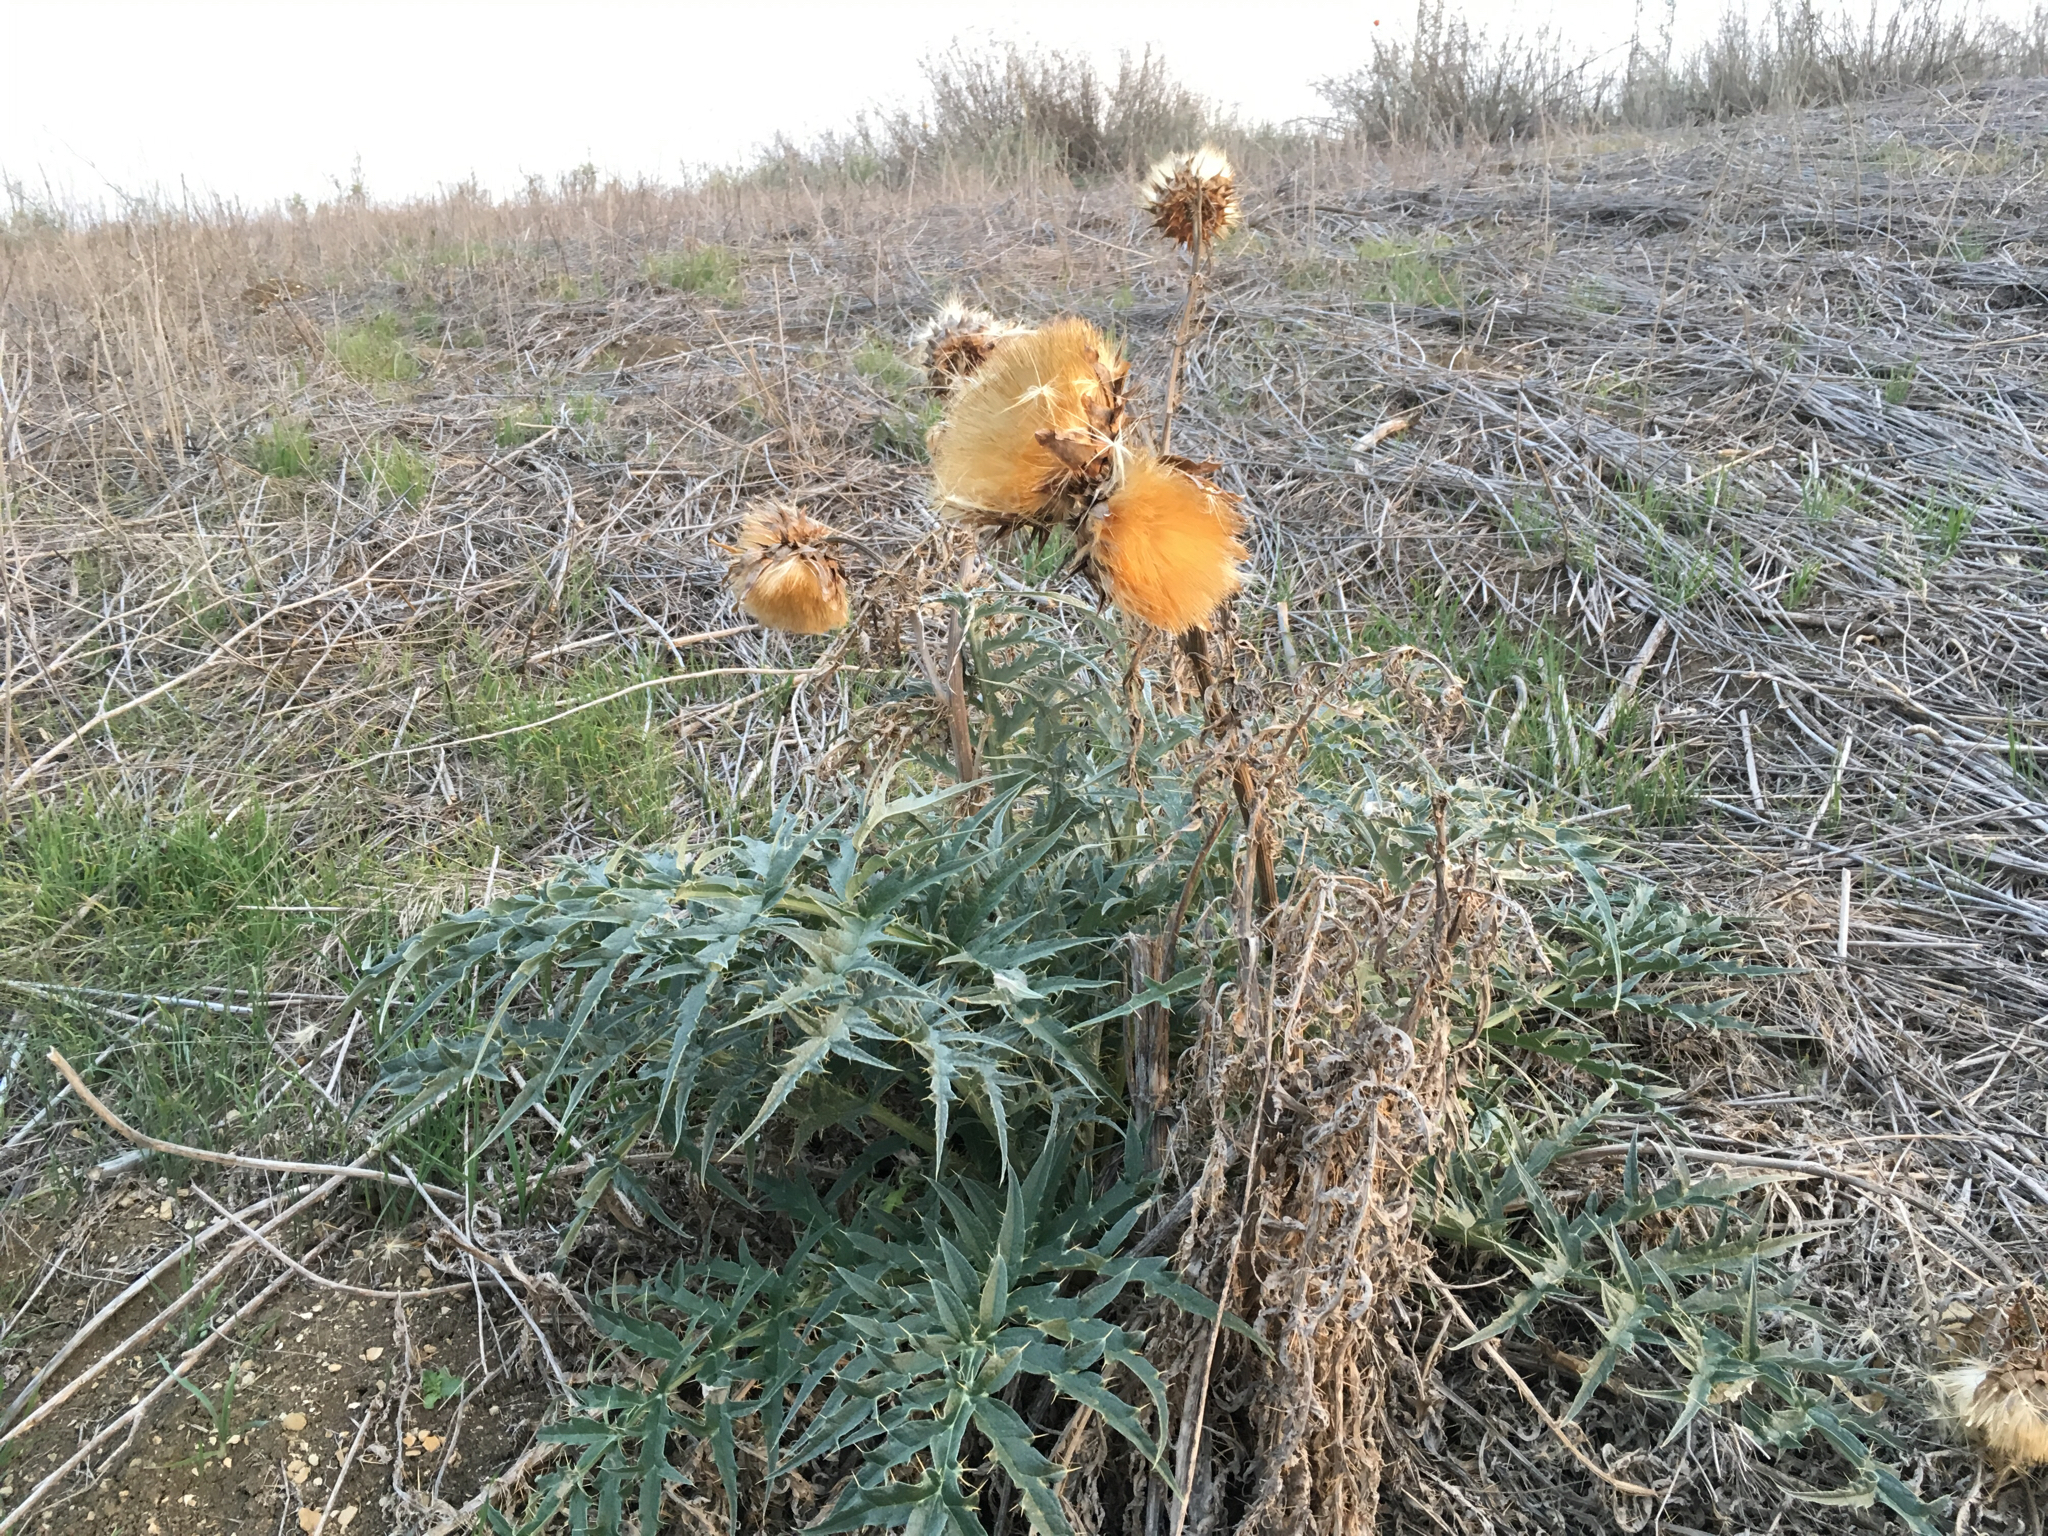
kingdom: Plantae
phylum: Tracheophyta
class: Magnoliopsida
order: Asterales
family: Asteraceae
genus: Cynara
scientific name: Cynara cardunculus
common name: Globe artichoke
